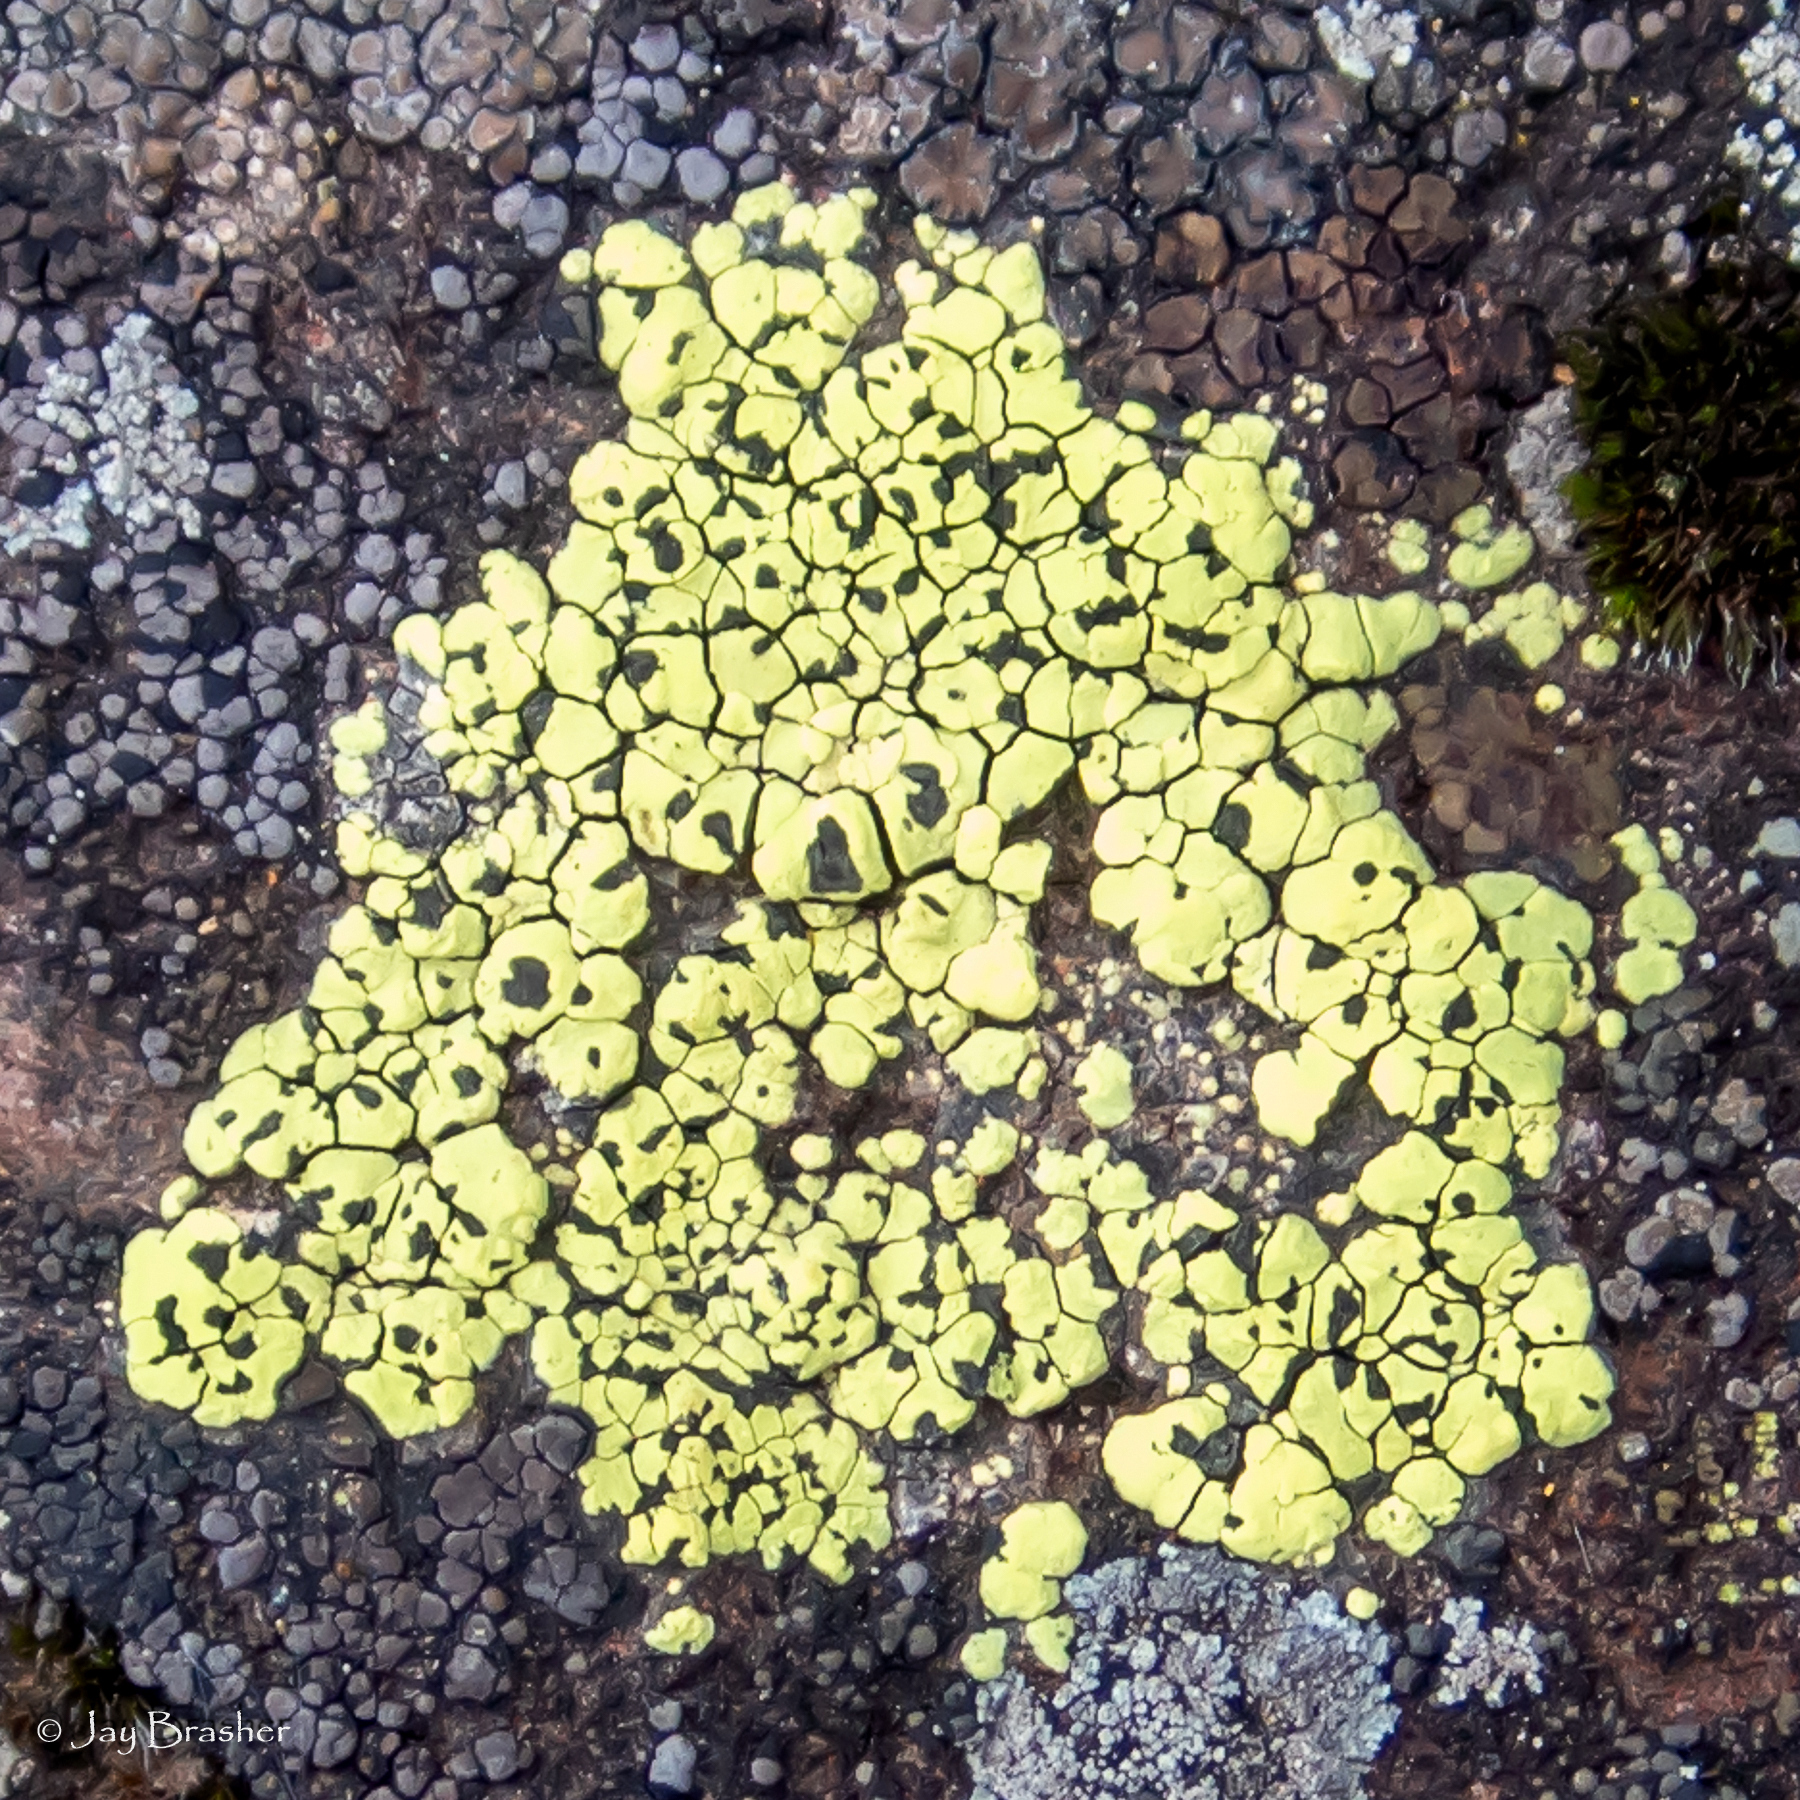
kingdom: Fungi
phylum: Ascomycota
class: Lecanoromycetes
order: Rhizocarpales
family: Rhizocarpaceae
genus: Rhizocarpon
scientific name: Rhizocarpon geographicum
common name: Yellow map lichen
